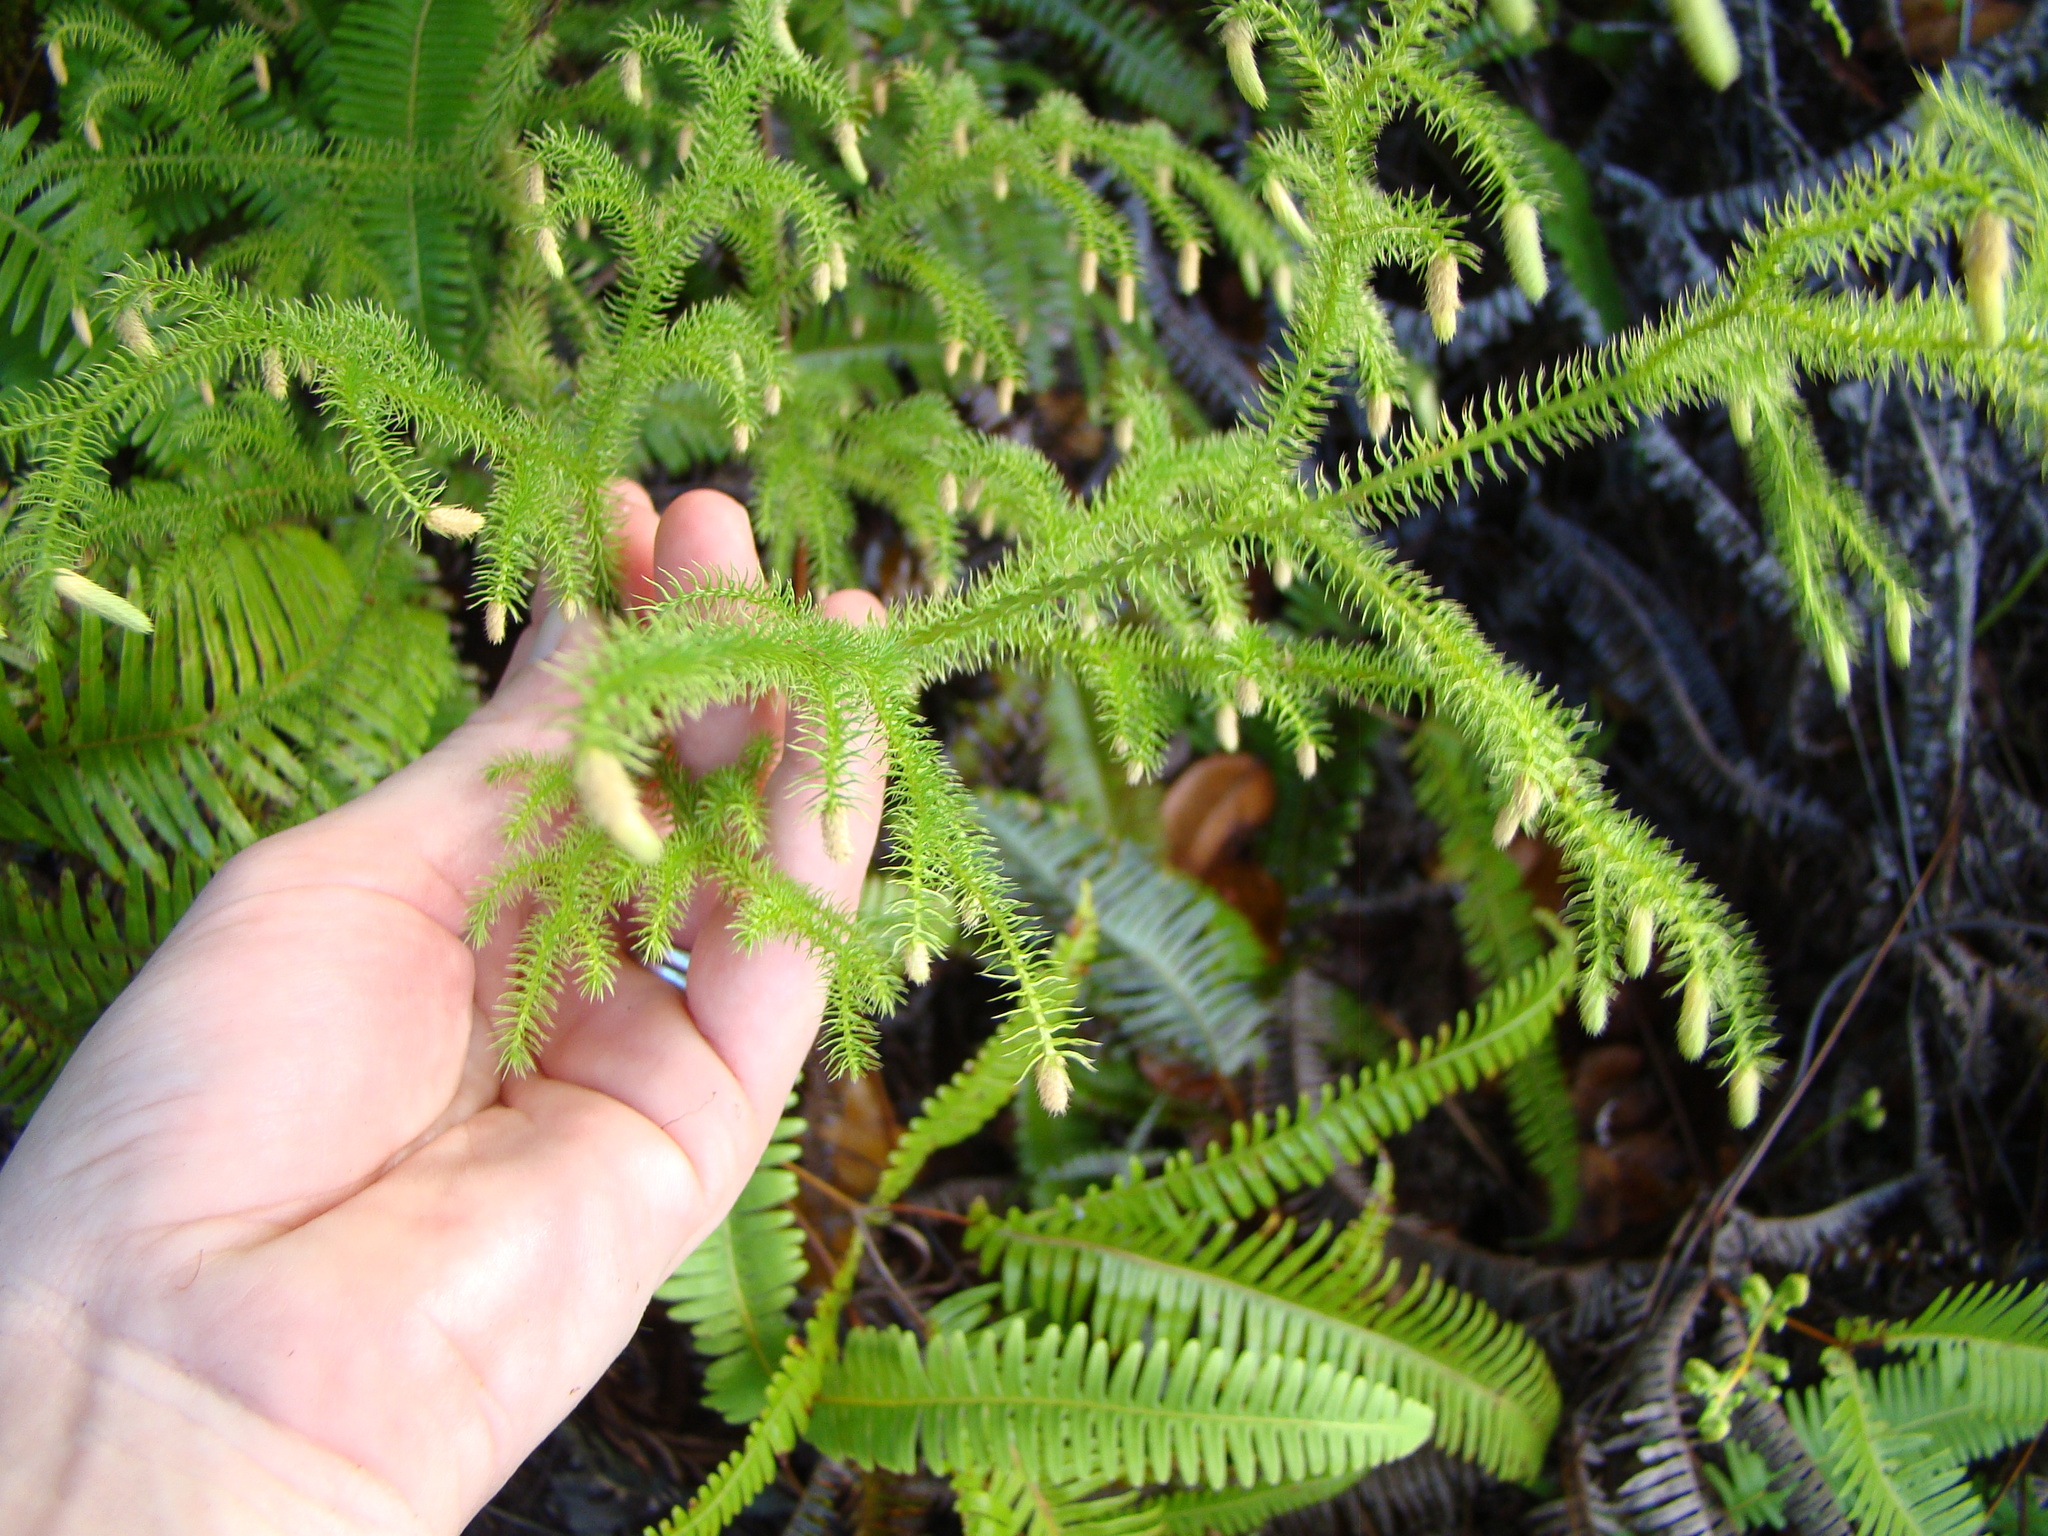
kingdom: Plantae
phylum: Tracheophyta
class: Lycopodiopsida
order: Lycopodiales
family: Lycopodiaceae
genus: Palhinhaea
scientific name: Palhinhaea cernua
